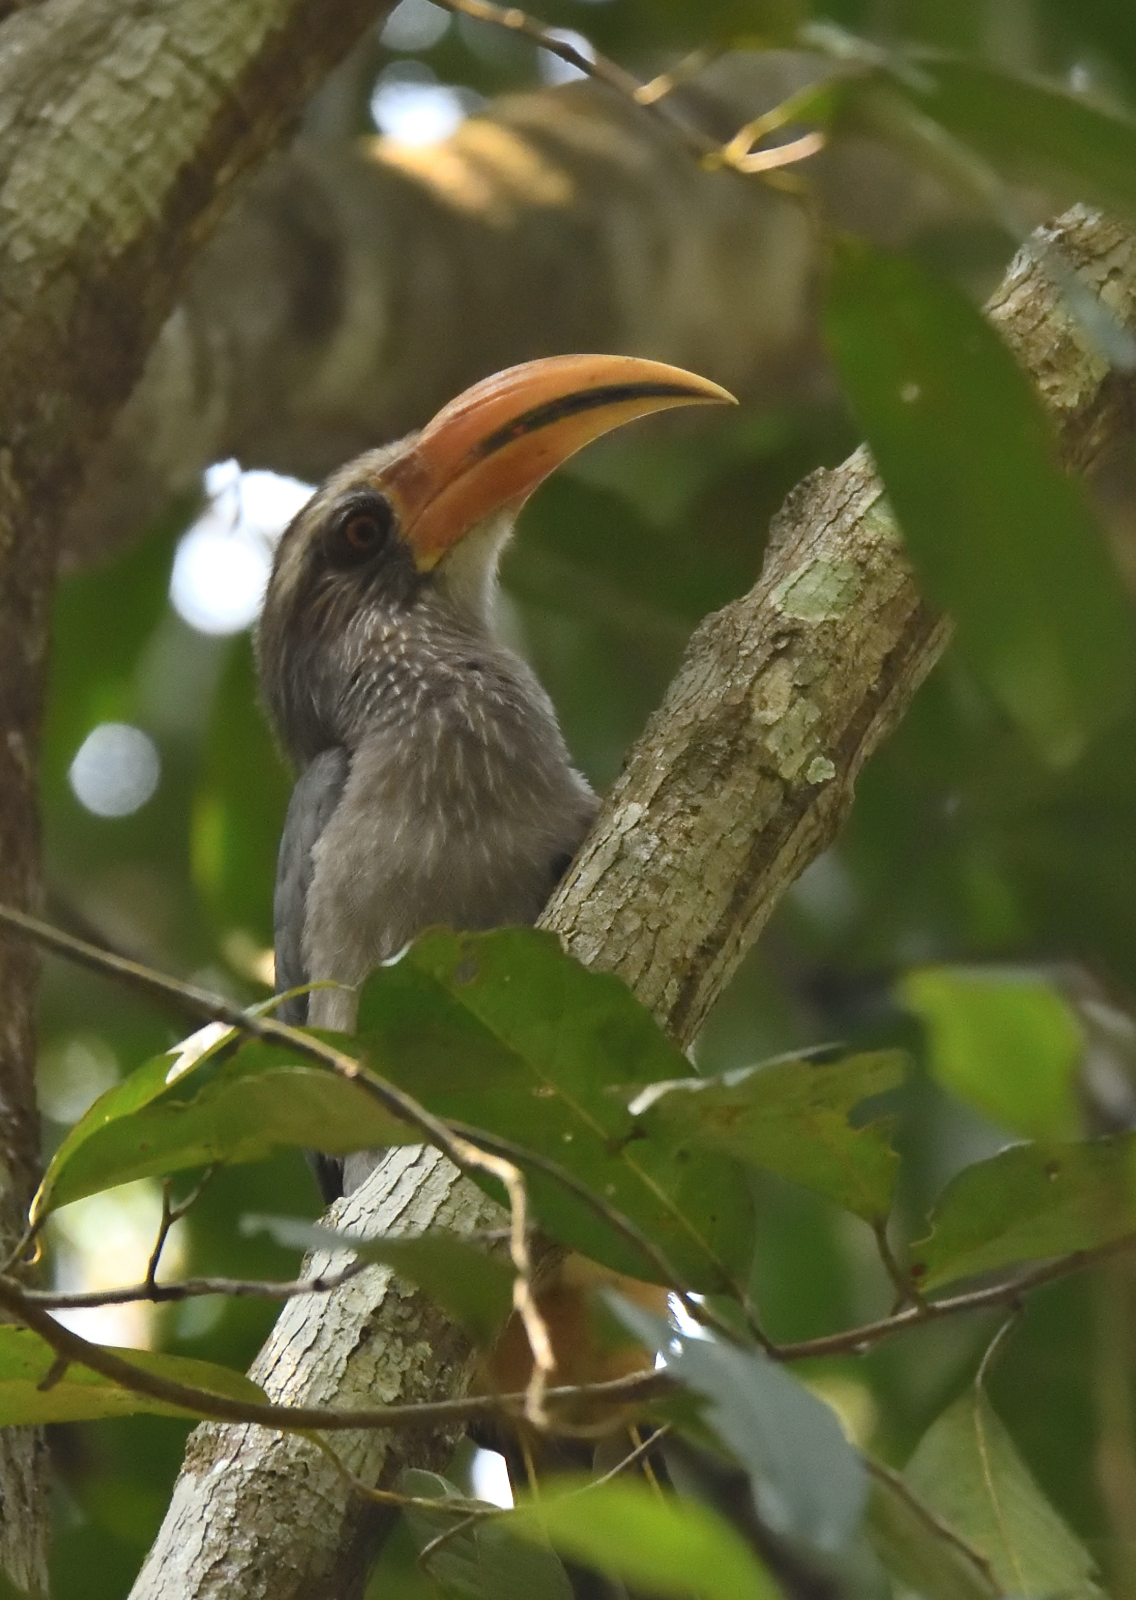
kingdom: Animalia
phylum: Chordata
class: Aves
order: Bucerotiformes
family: Bucerotidae
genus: Ocyceros
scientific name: Ocyceros griseus
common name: Malabar grey hornbill
